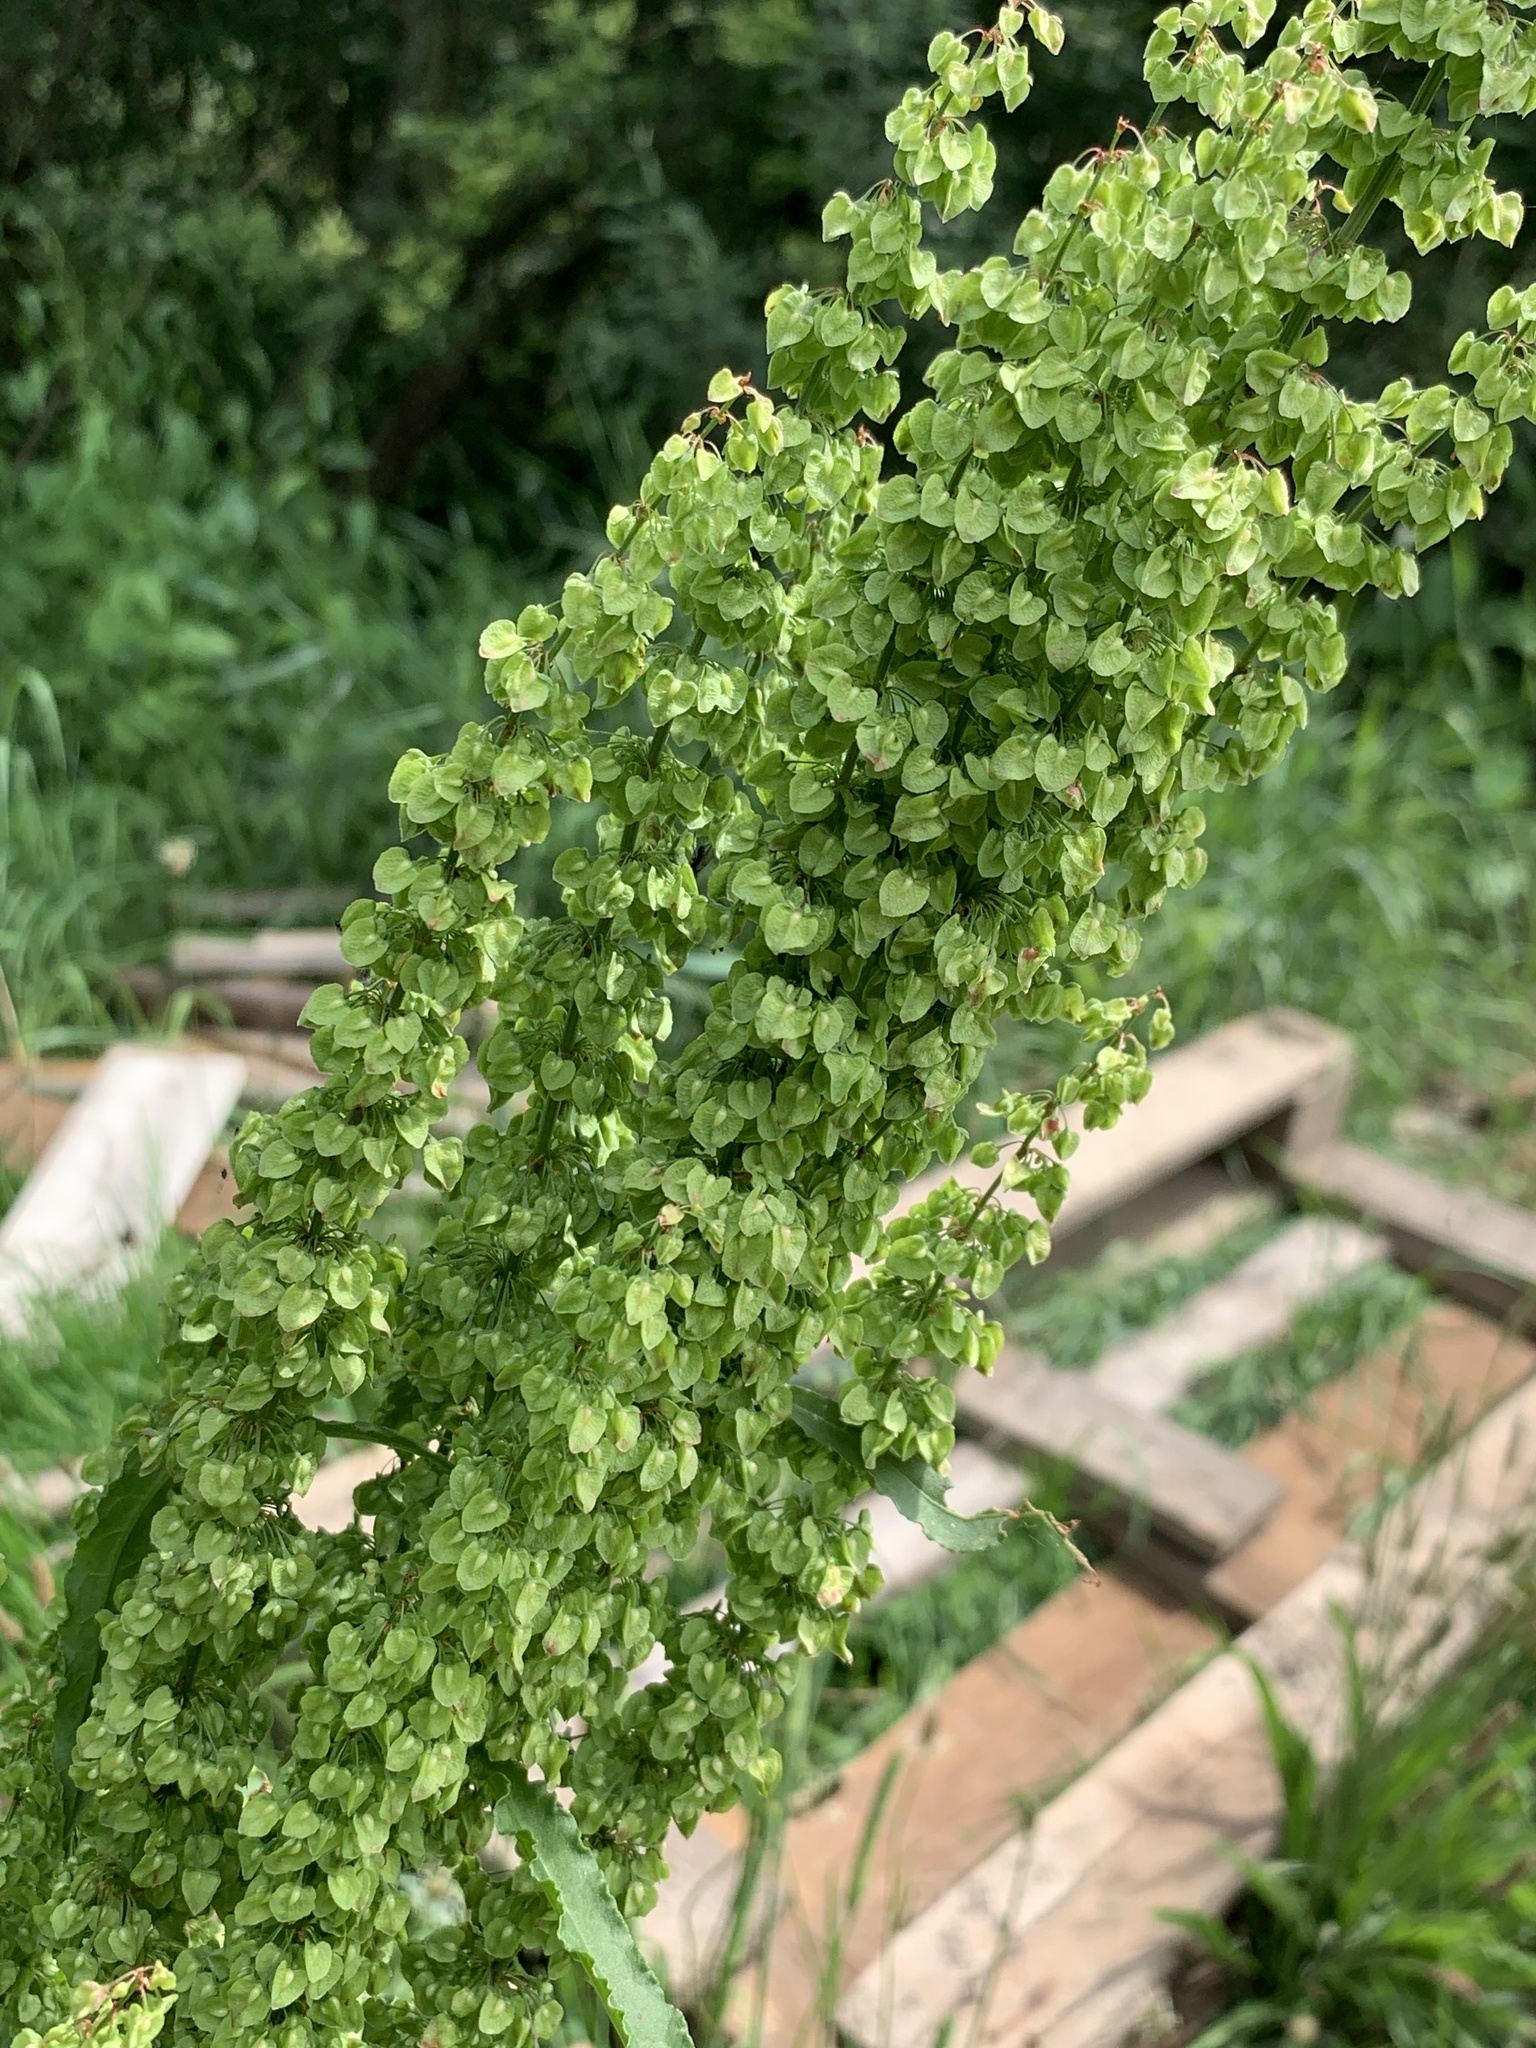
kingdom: Plantae
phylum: Tracheophyta
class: Magnoliopsida
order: Caryophyllales
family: Polygonaceae
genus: Rumex
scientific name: Rumex crispus
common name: Curled dock
